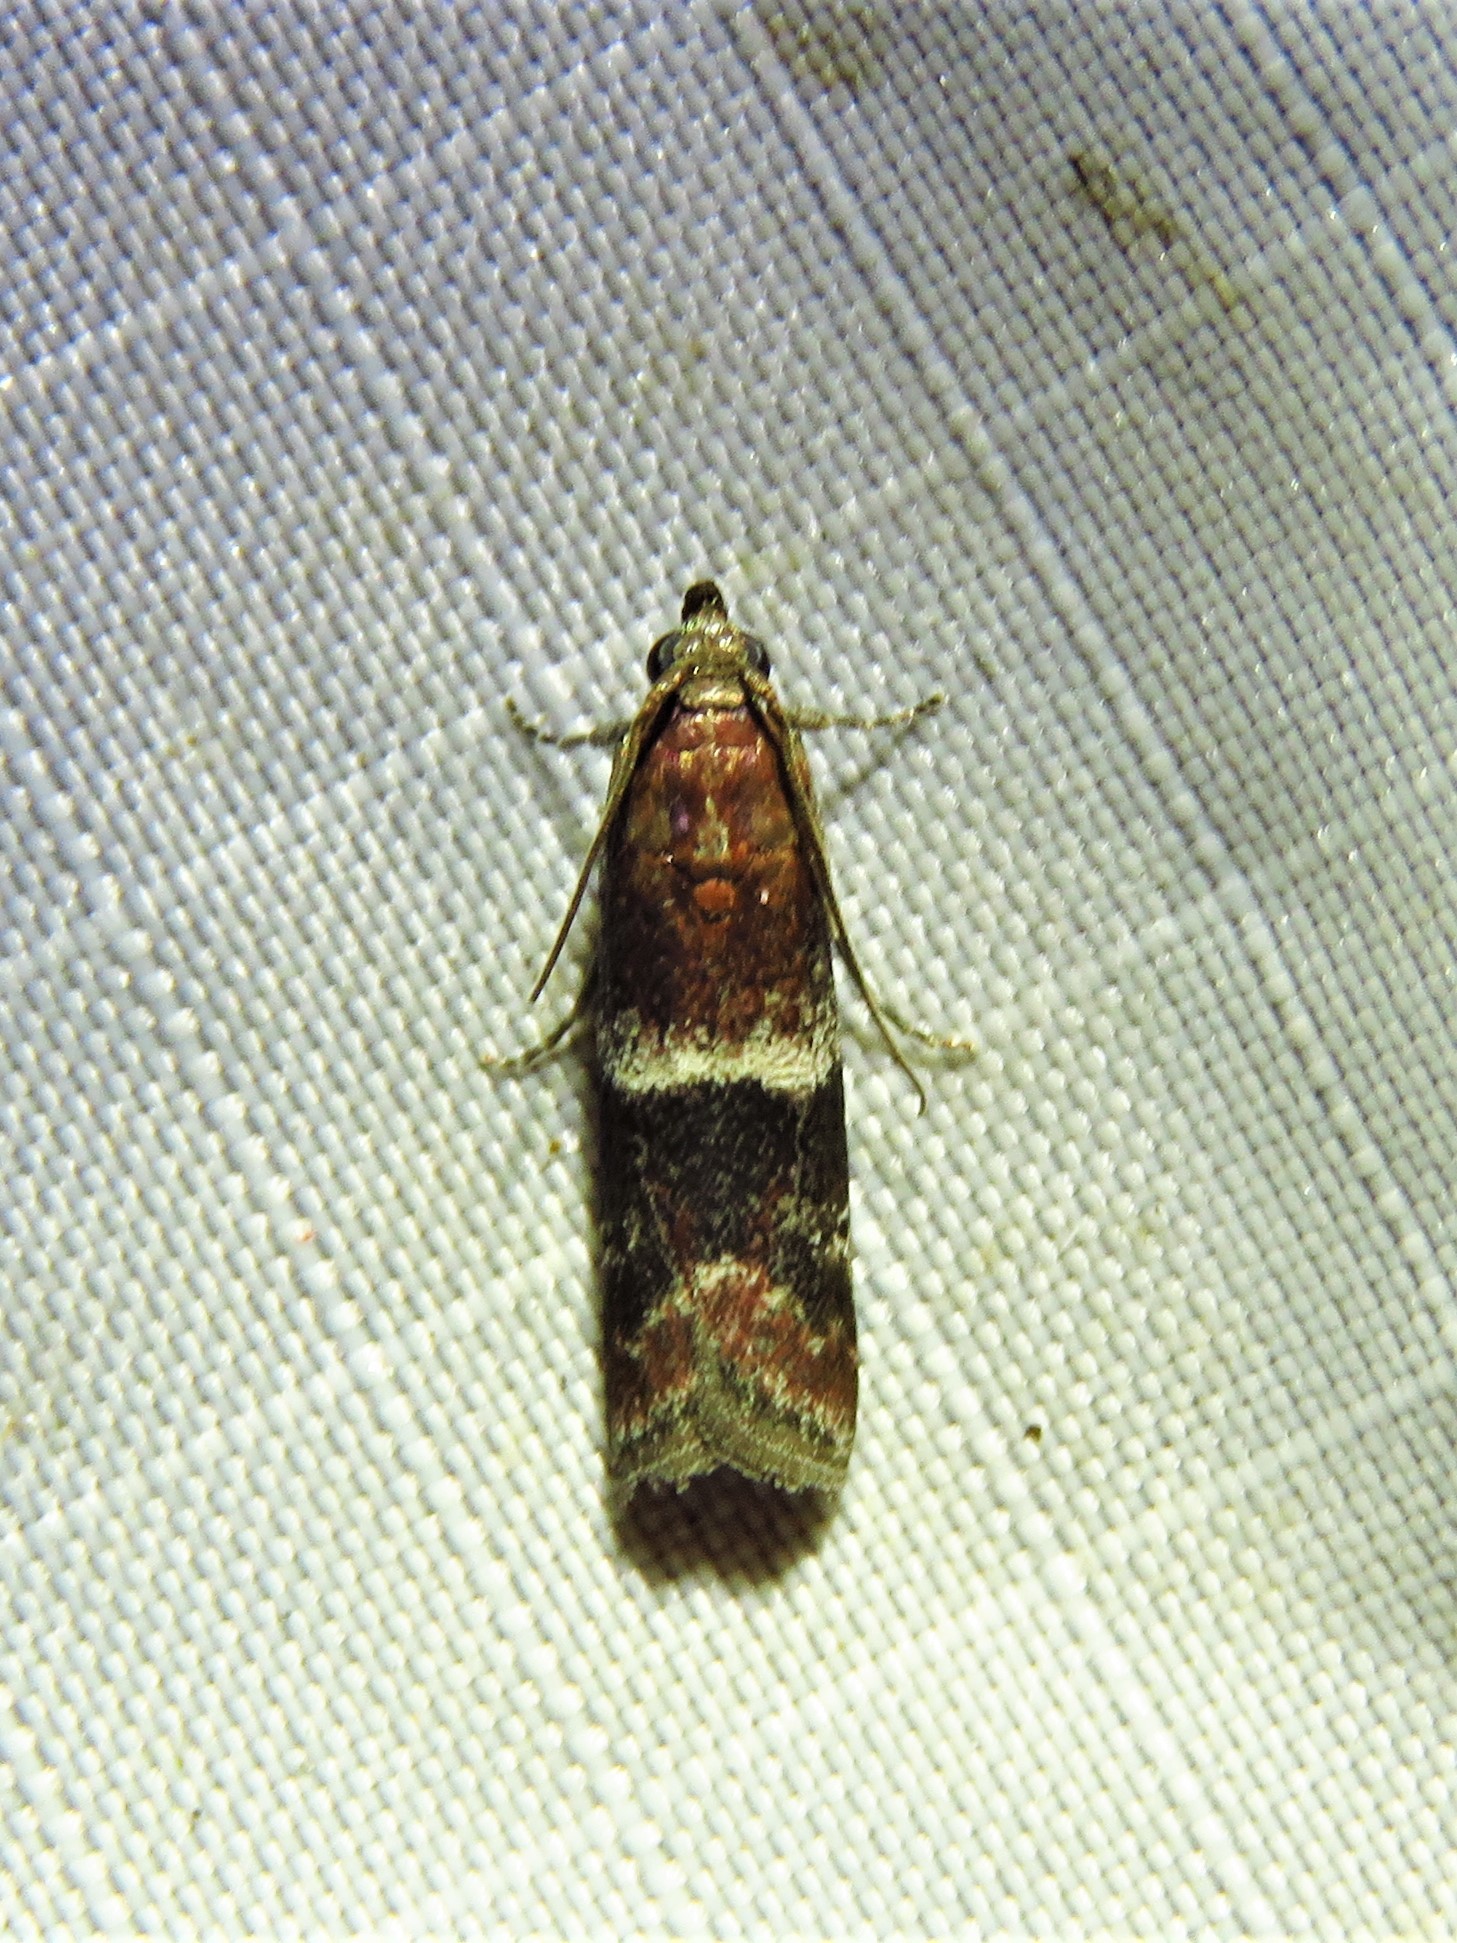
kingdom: Animalia
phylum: Arthropoda
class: Insecta
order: Lepidoptera
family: Pyralidae
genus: Moodna
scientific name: Moodna ostrinella
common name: Darker moodna moth
